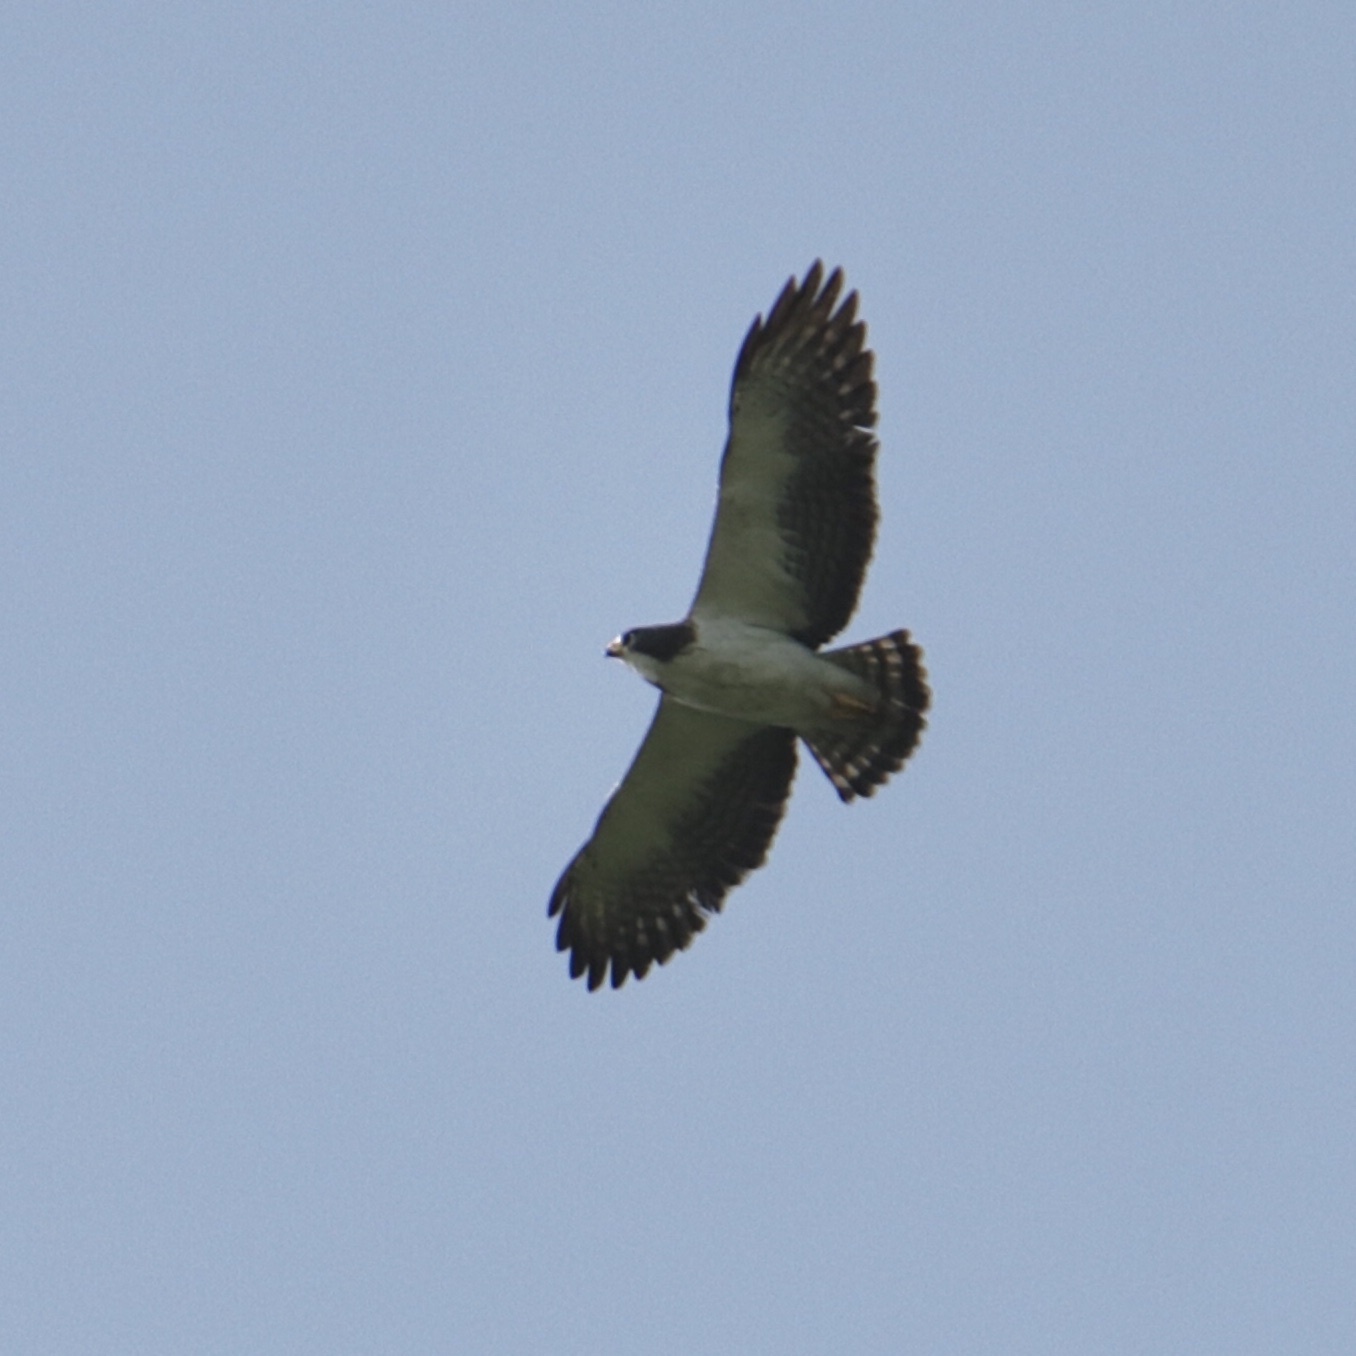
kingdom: Animalia
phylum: Chordata
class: Aves
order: Accipitriformes
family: Accipitridae
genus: Buteo
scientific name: Buteo brachyurus
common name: Short-tailed hawk
